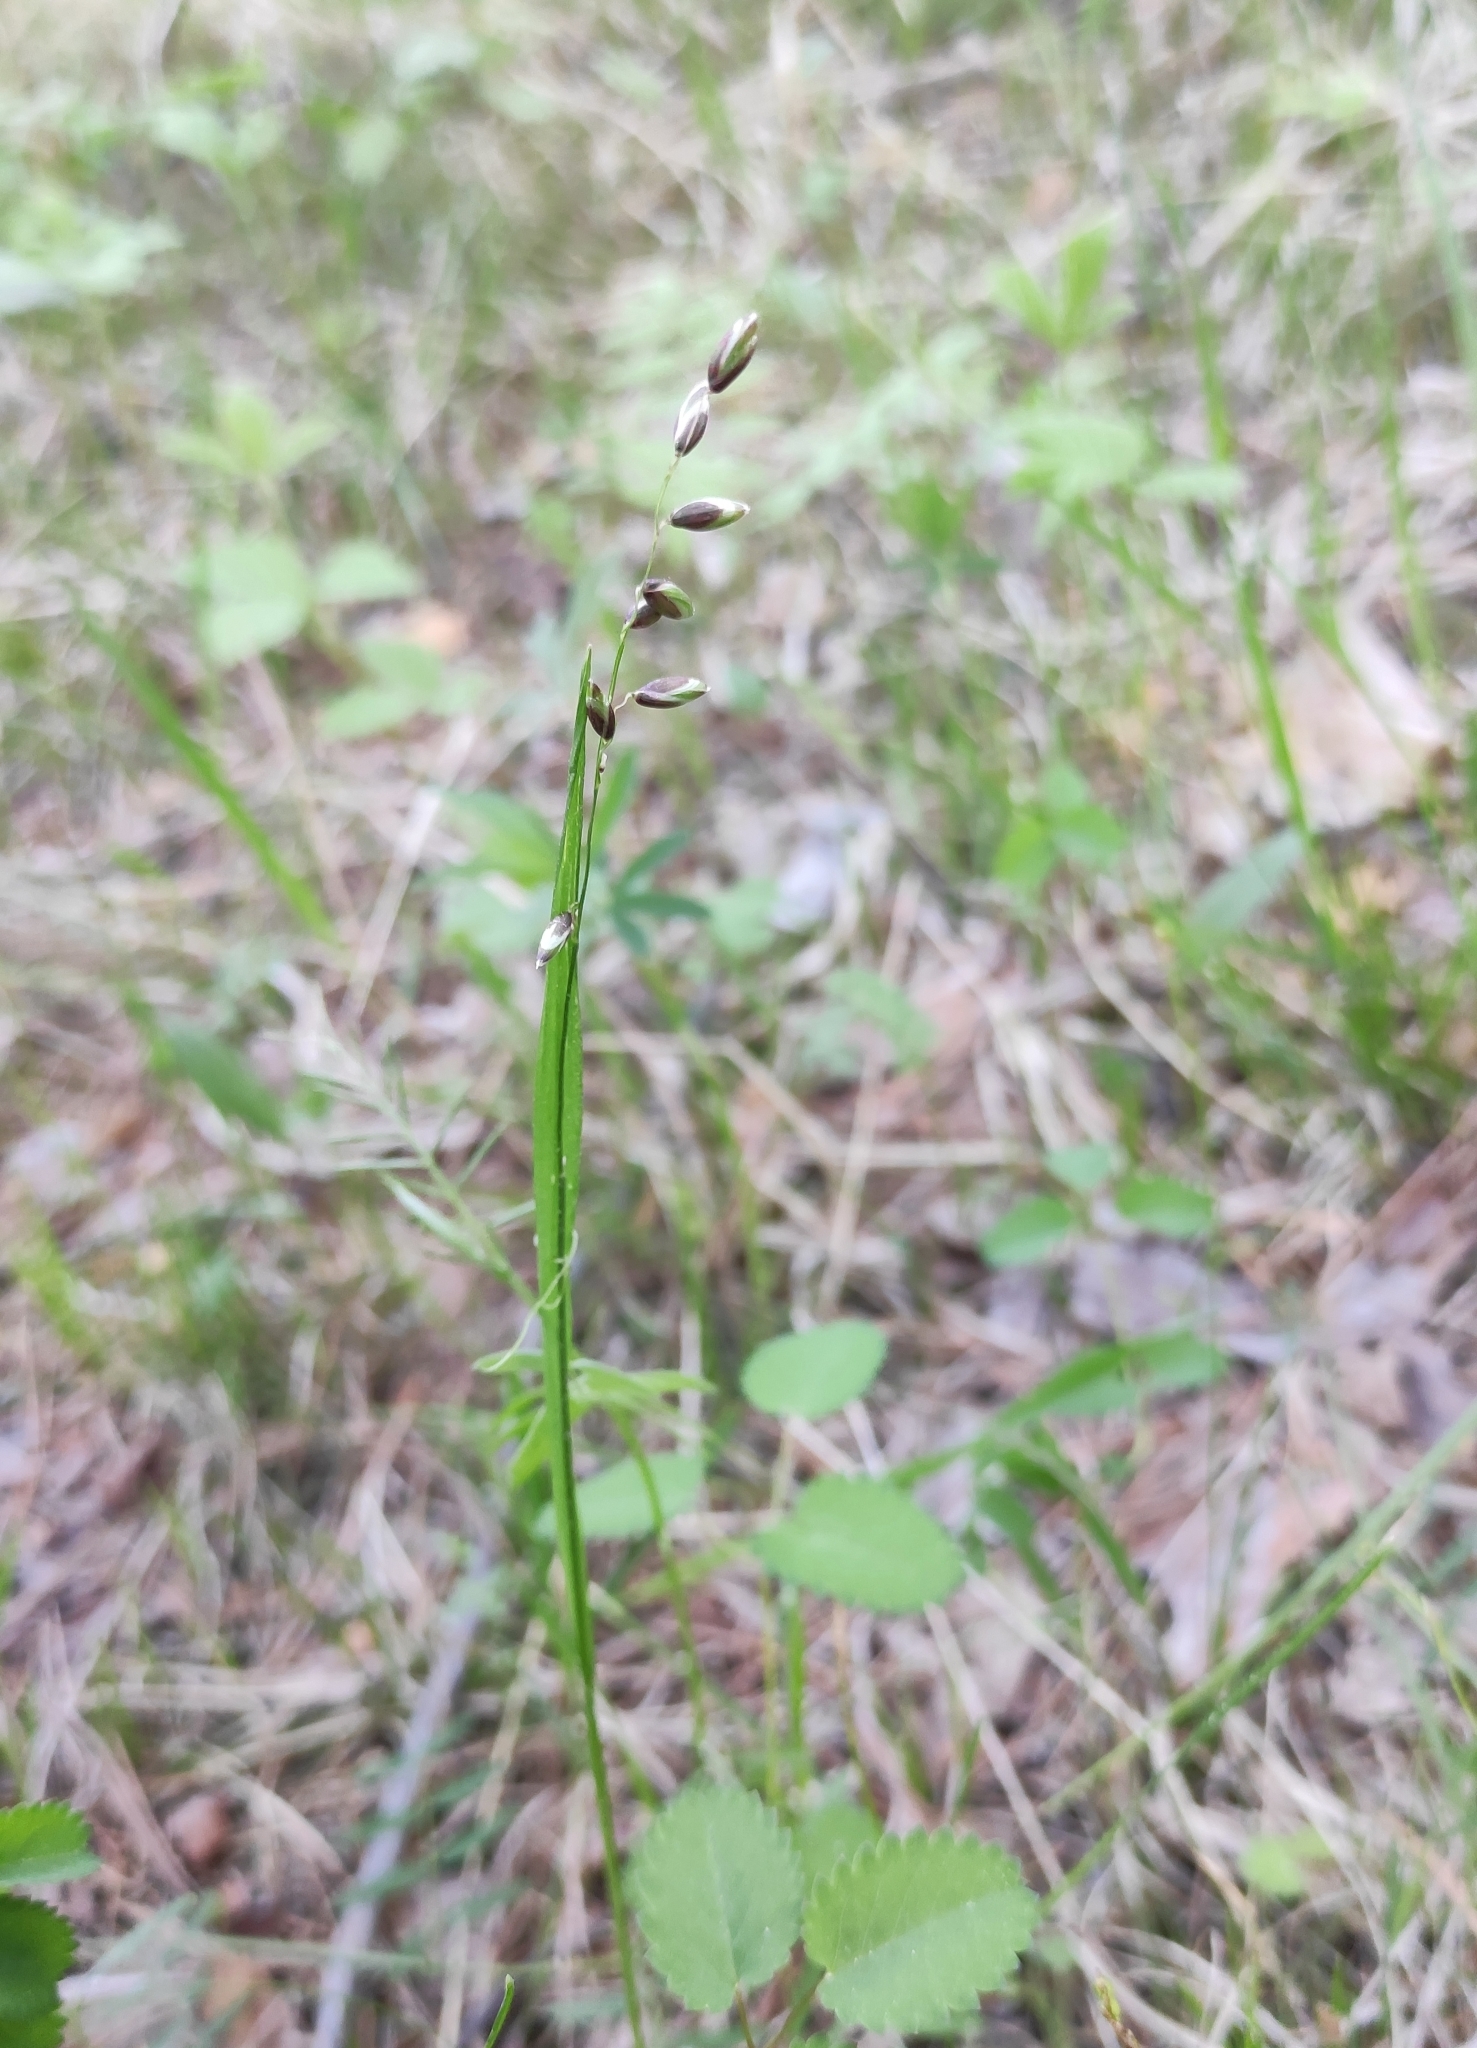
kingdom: Plantae
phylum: Tracheophyta
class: Liliopsida
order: Poales
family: Poaceae
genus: Melica
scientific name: Melica nutans
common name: Mountain melick
